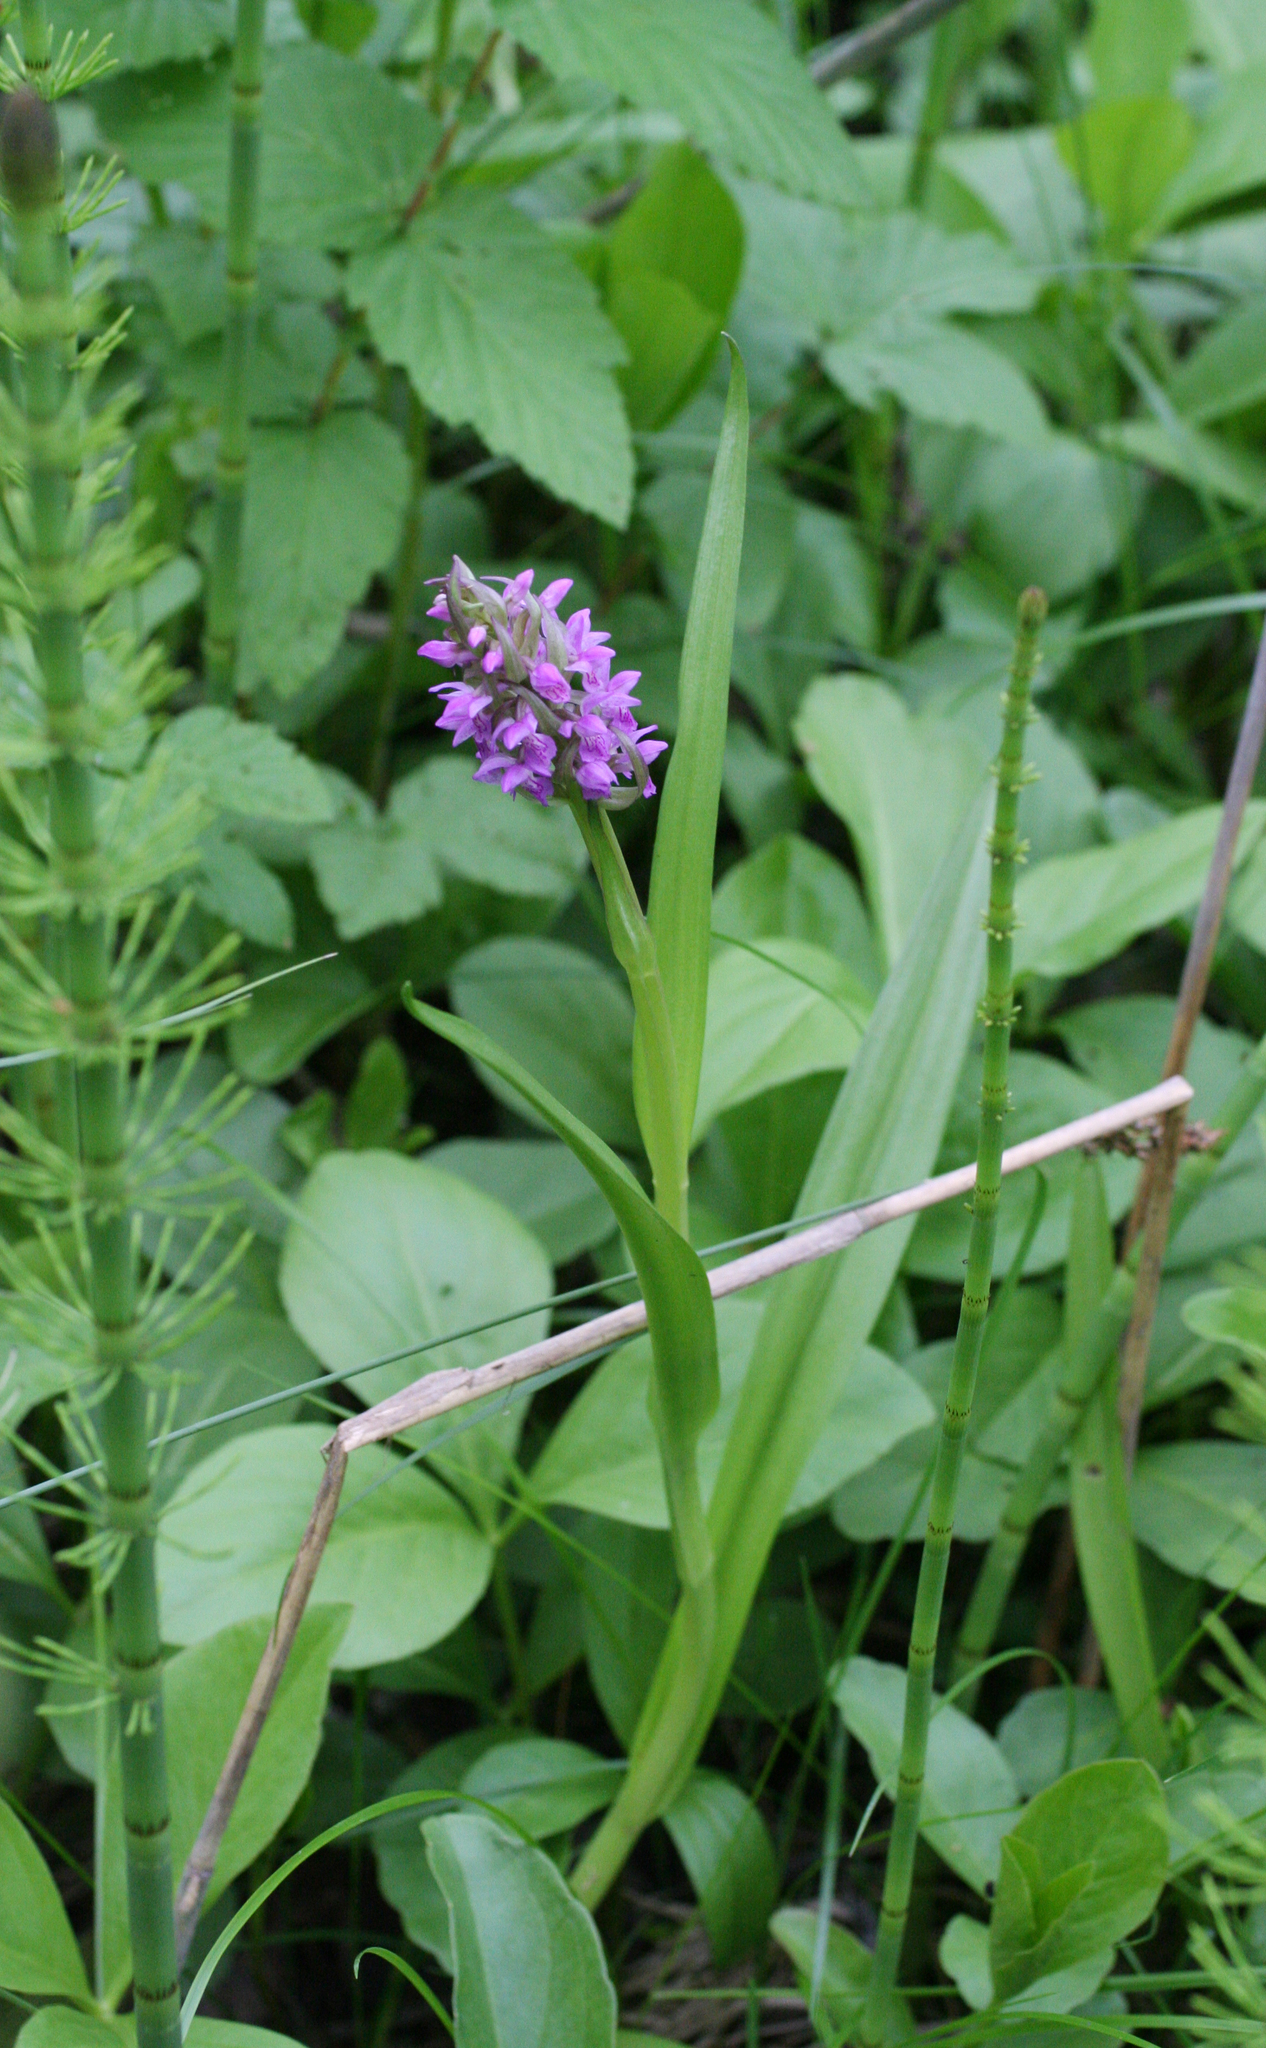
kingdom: Plantae
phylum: Tracheophyta
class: Liliopsida
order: Asparagales
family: Orchidaceae
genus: Dactylorhiza
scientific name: Dactylorhiza incarnata
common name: Early marsh-orchid
